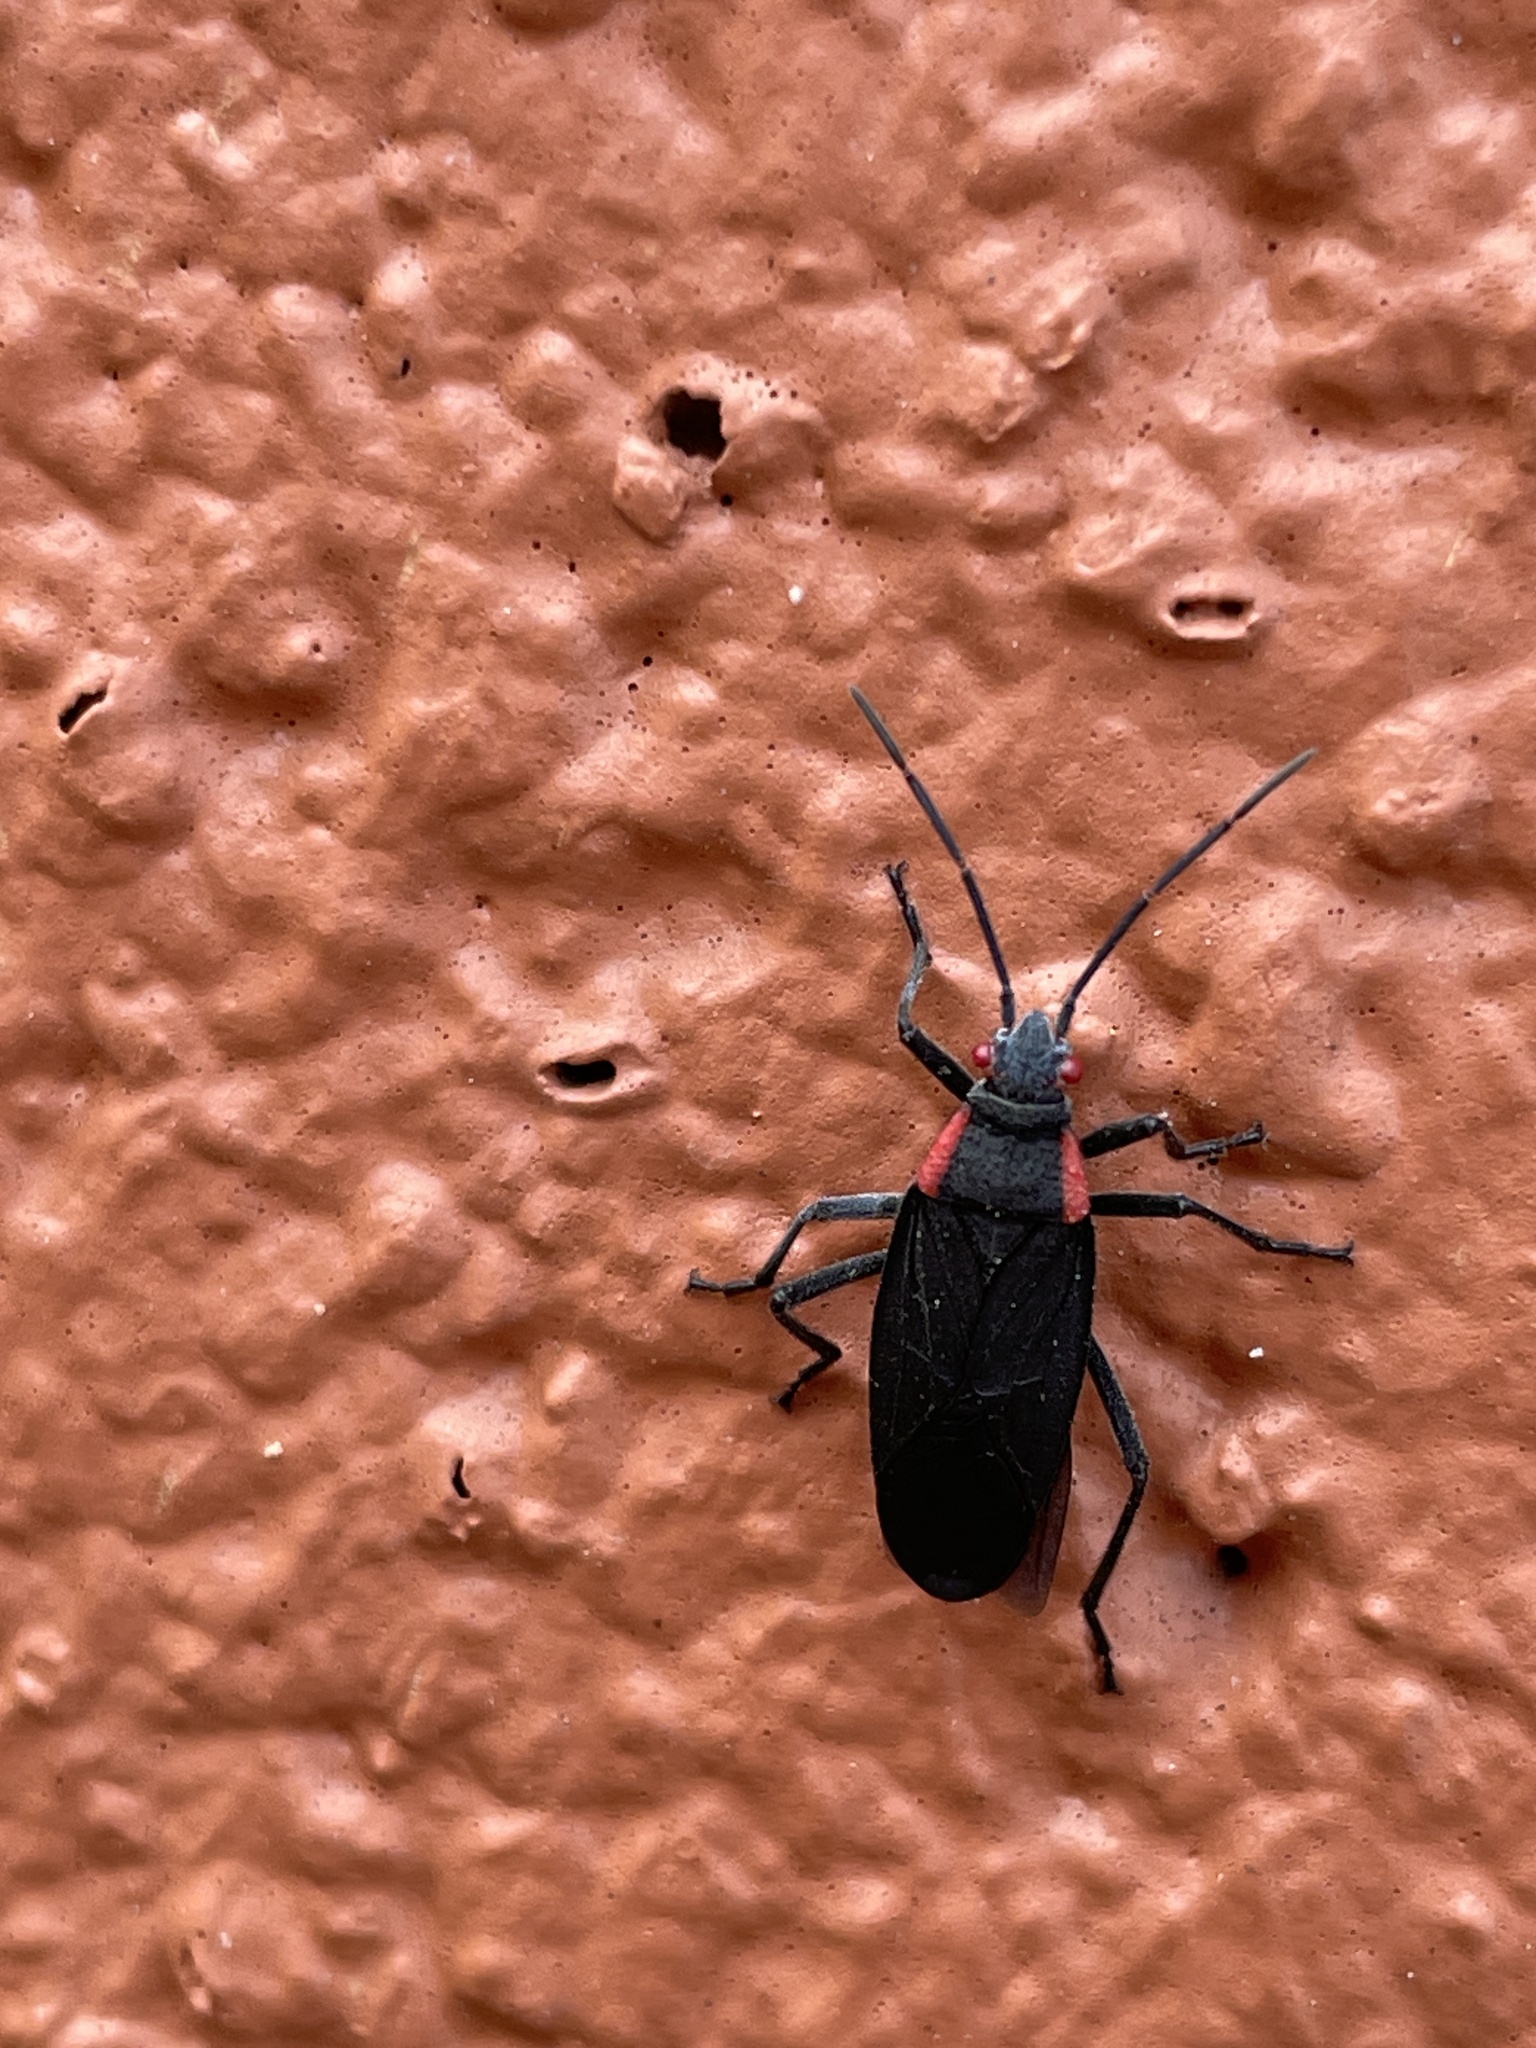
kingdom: Animalia
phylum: Arthropoda
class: Insecta
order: Hemiptera
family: Rhopalidae
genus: Jadera
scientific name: Jadera haematoloma
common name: Red-shouldered bug
